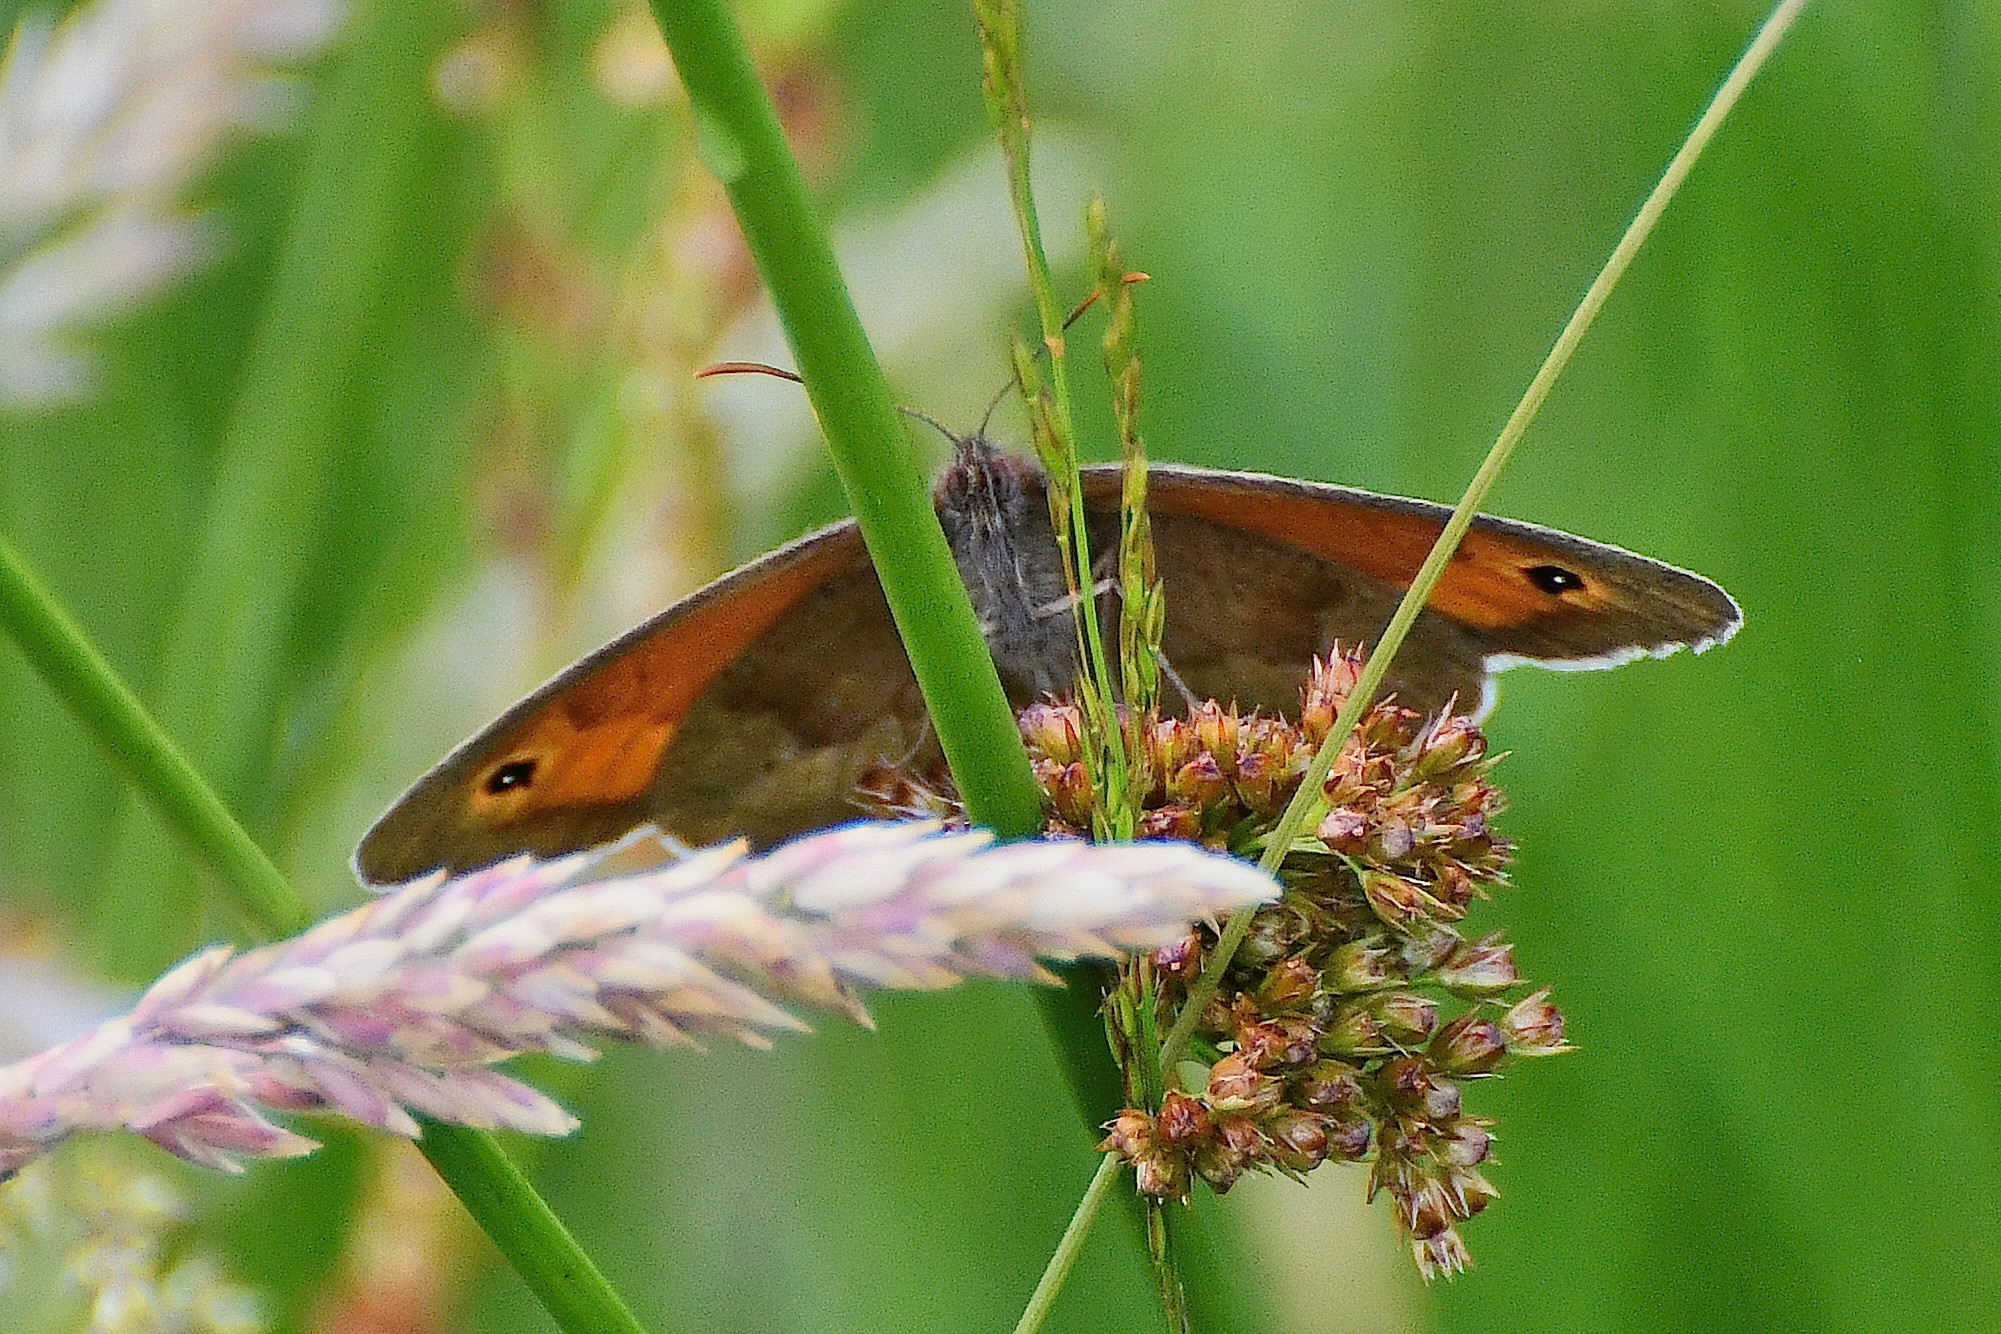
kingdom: Animalia
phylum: Arthropoda
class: Insecta
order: Lepidoptera
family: Nymphalidae
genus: Maniola
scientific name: Maniola jurtina
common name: Meadow brown
